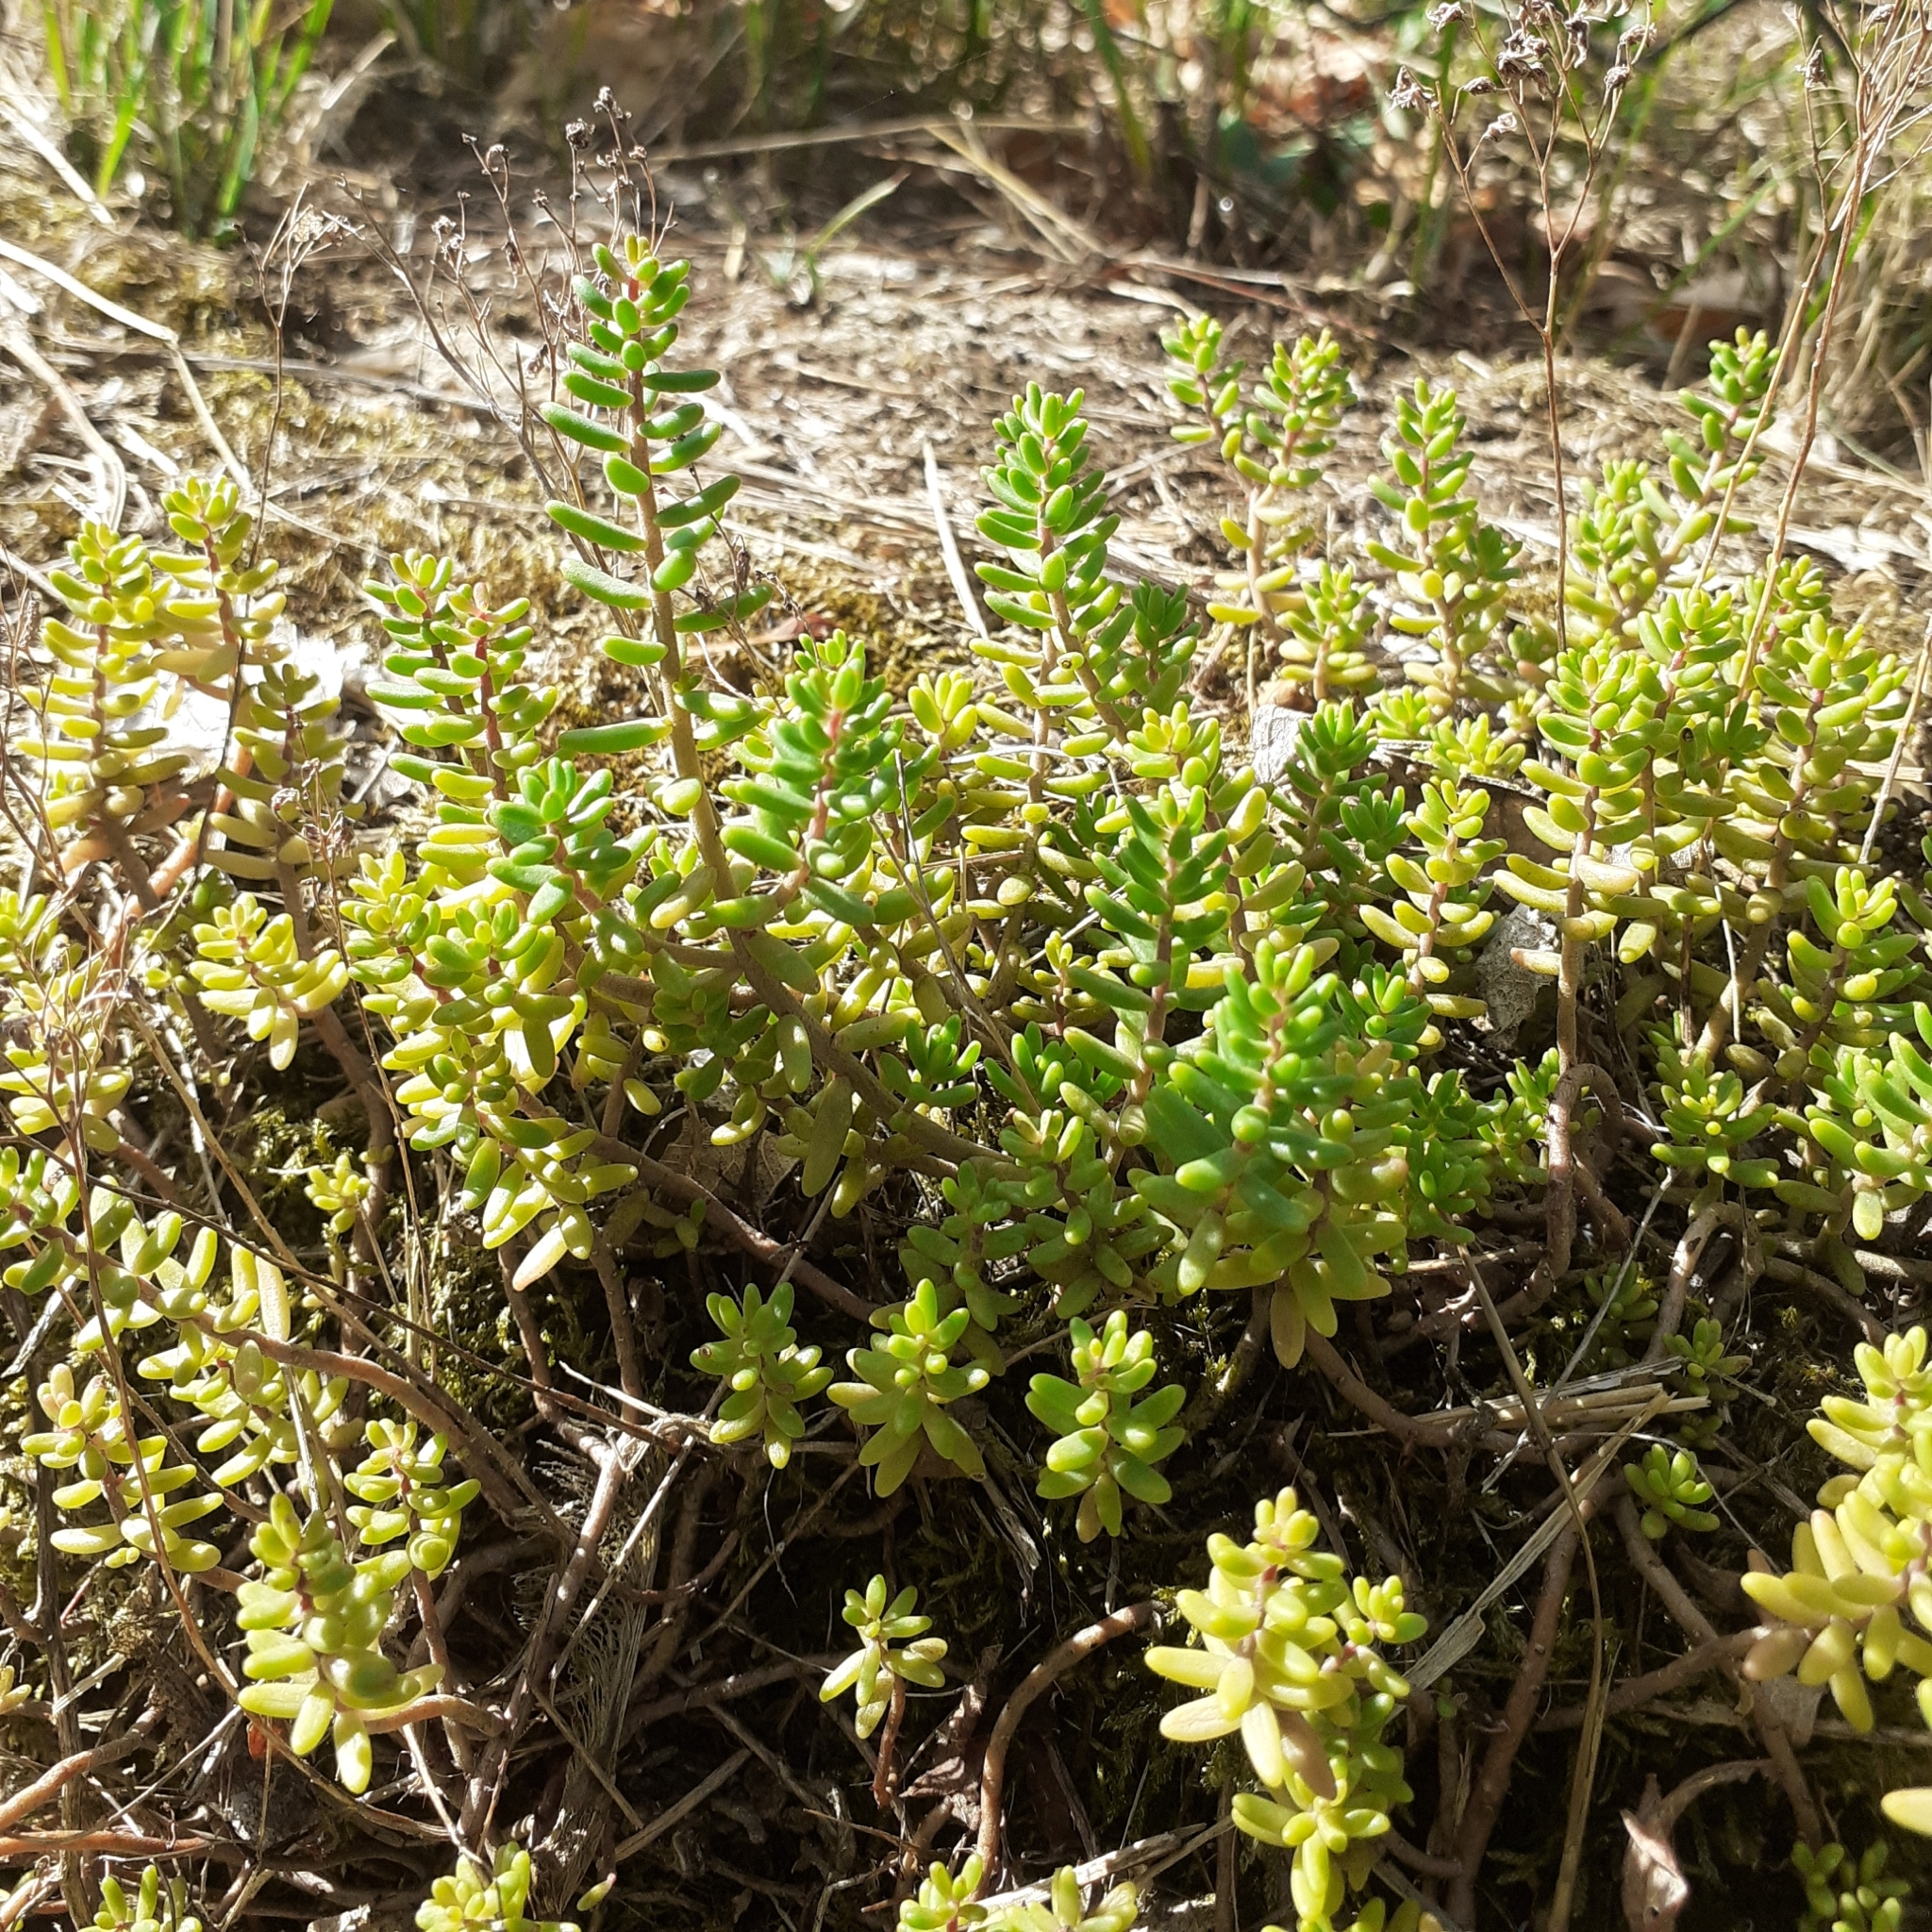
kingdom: Plantae
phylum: Tracheophyta
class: Magnoliopsida
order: Saxifragales
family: Crassulaceae
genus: Sedum
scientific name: Sedum album
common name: White stonecrop
